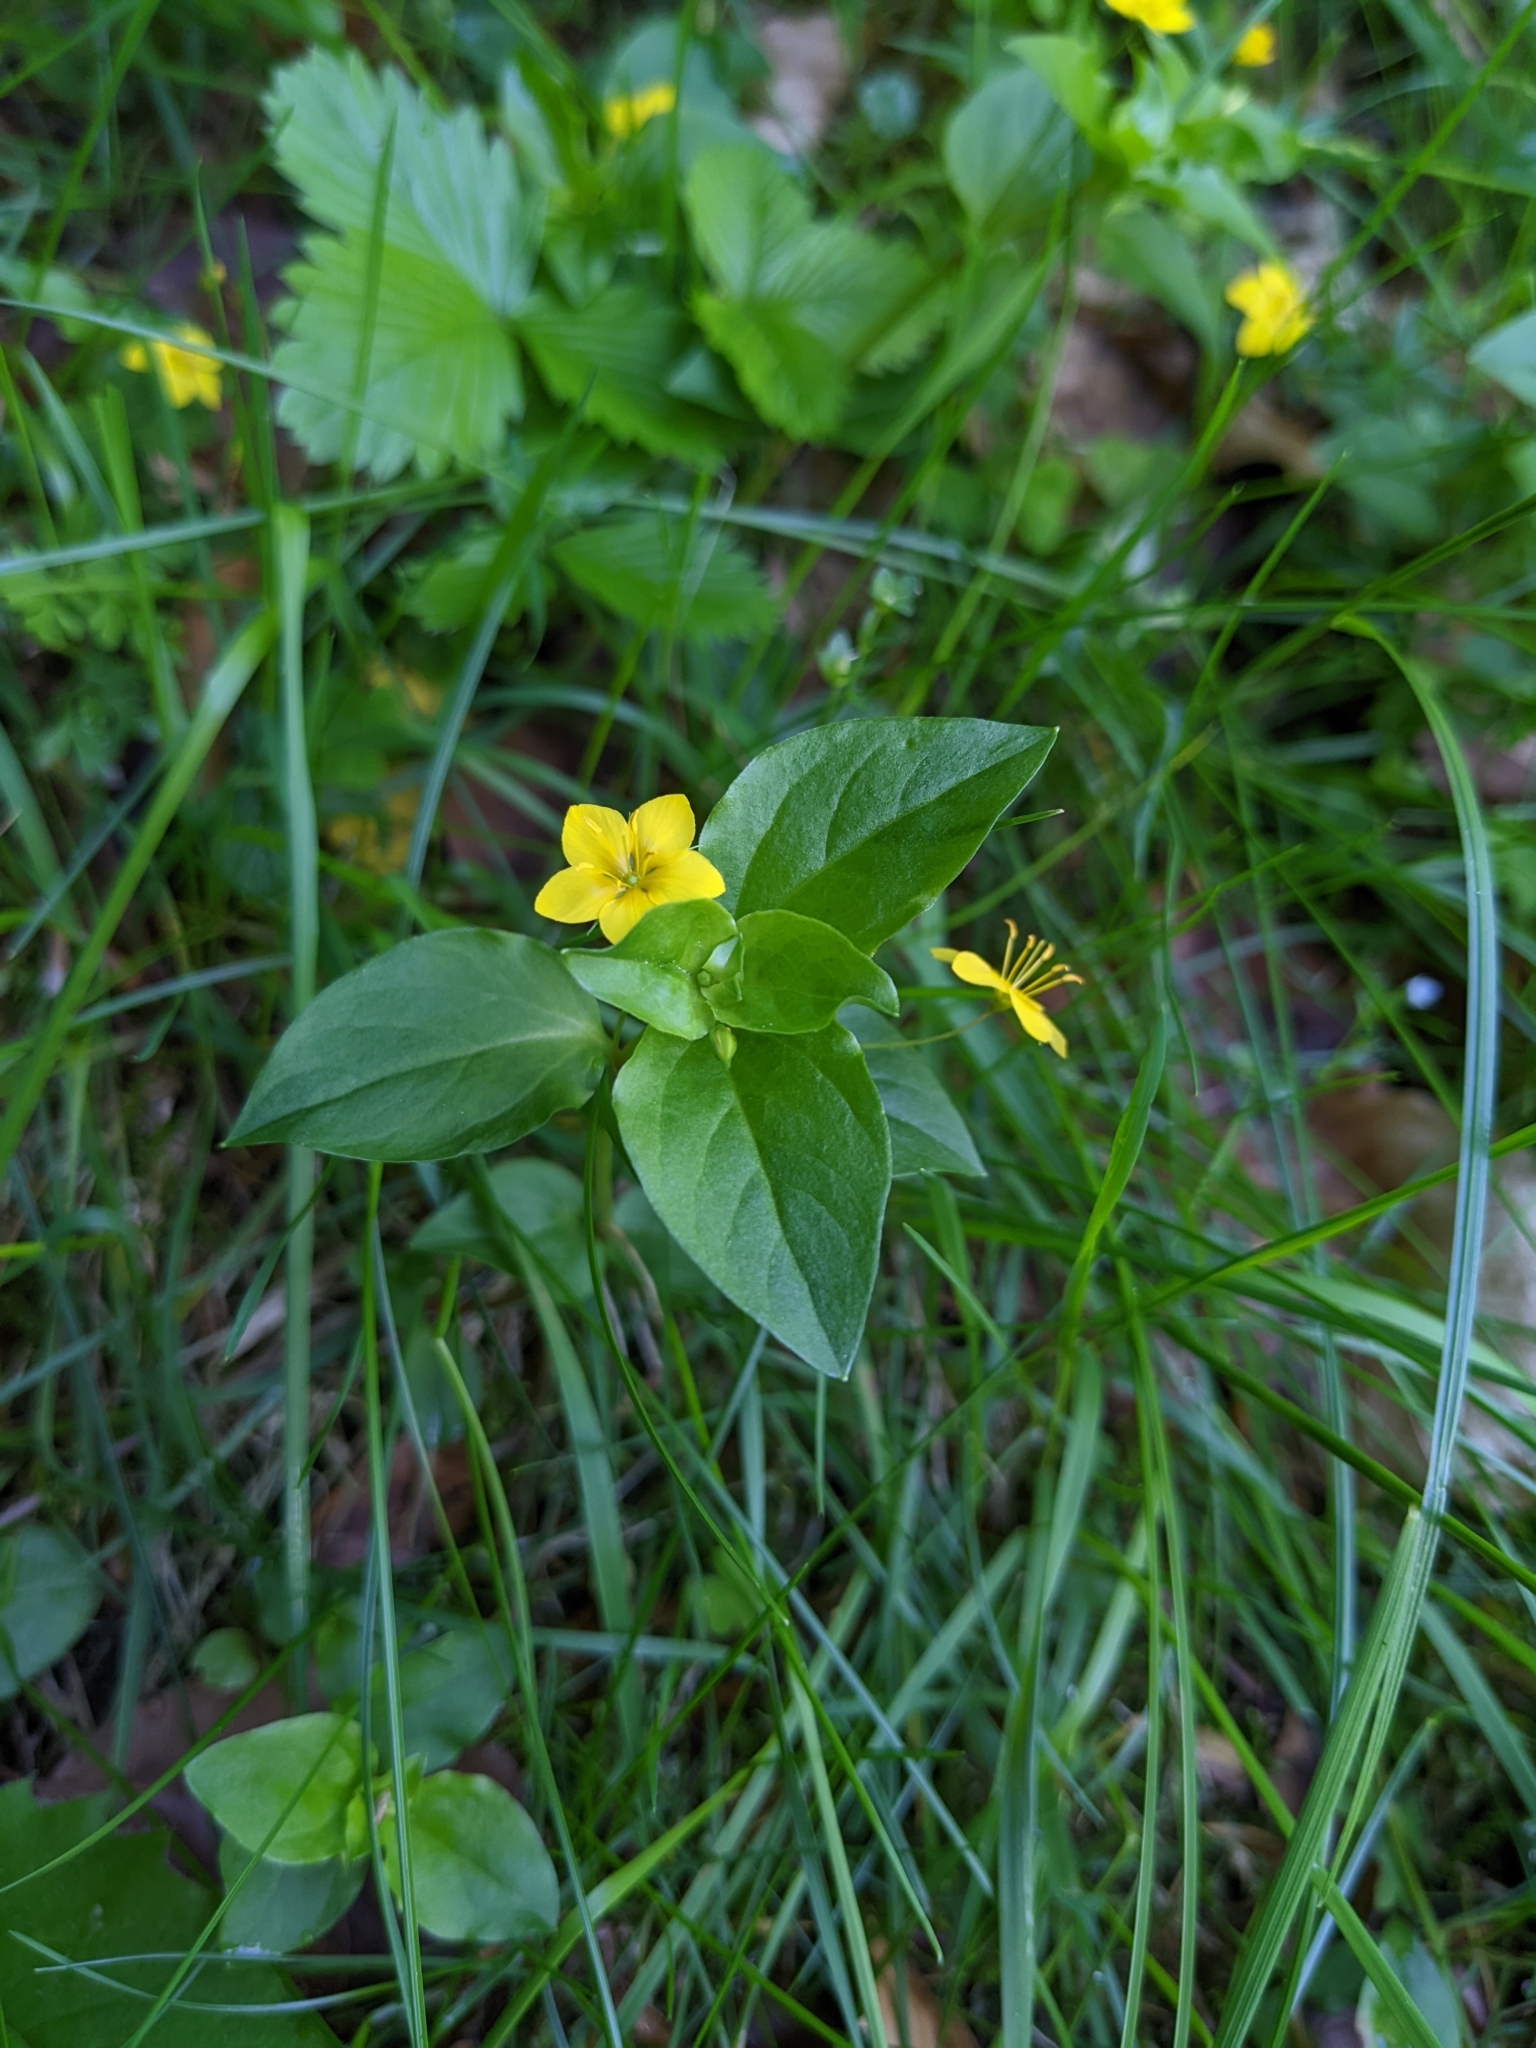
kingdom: Plantae
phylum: Tracheophyta
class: Magnoliopsida
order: Ericales
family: Primulaceae
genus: Lysimachia
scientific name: Lysimachia nemorum
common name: Yellow pimpernel
